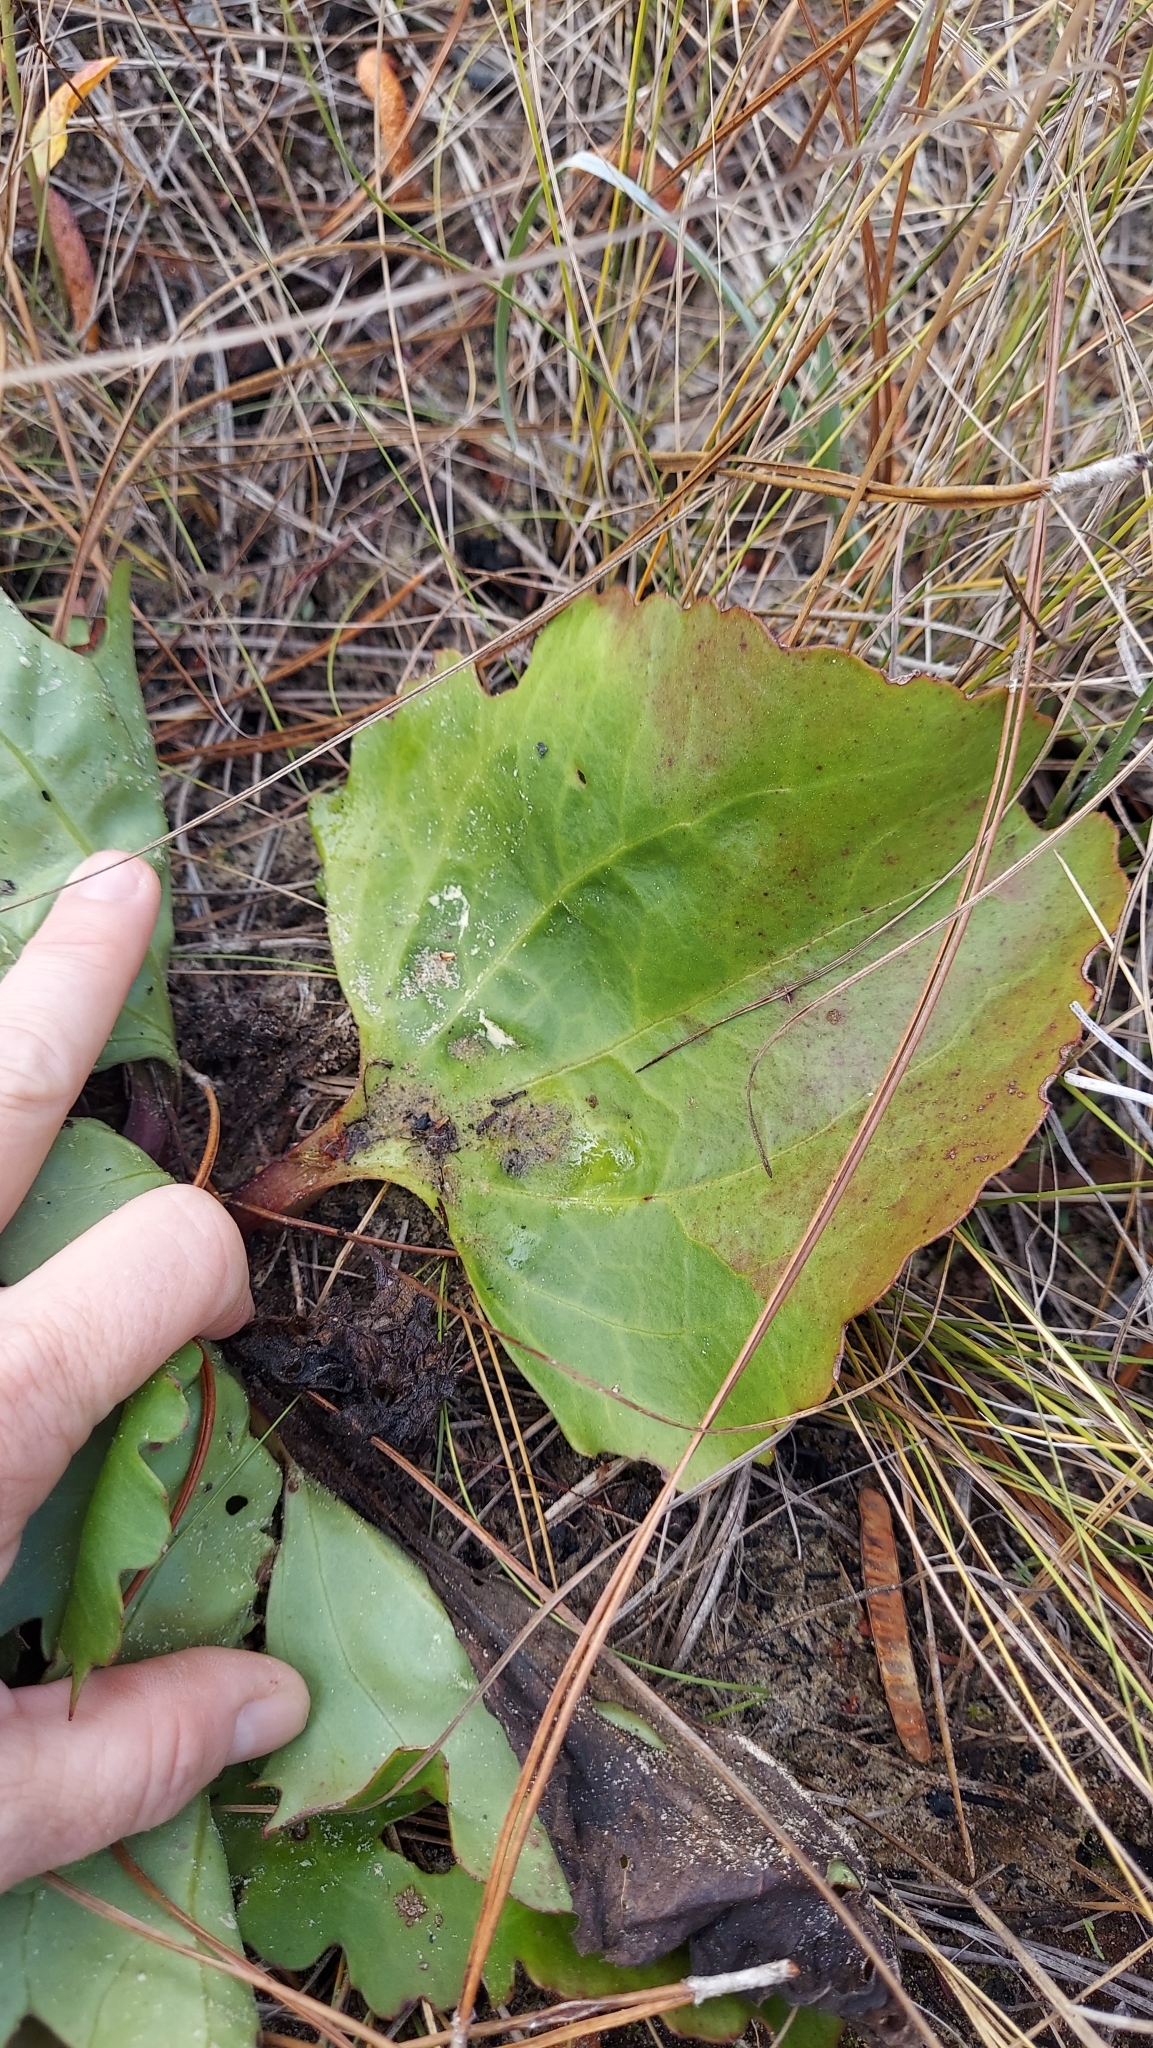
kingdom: Plantae
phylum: Tracheophyta
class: Magnoliopsida
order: Asterales
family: Asteraceae
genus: Arnoglossum
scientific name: Arnoglossum floridanum
